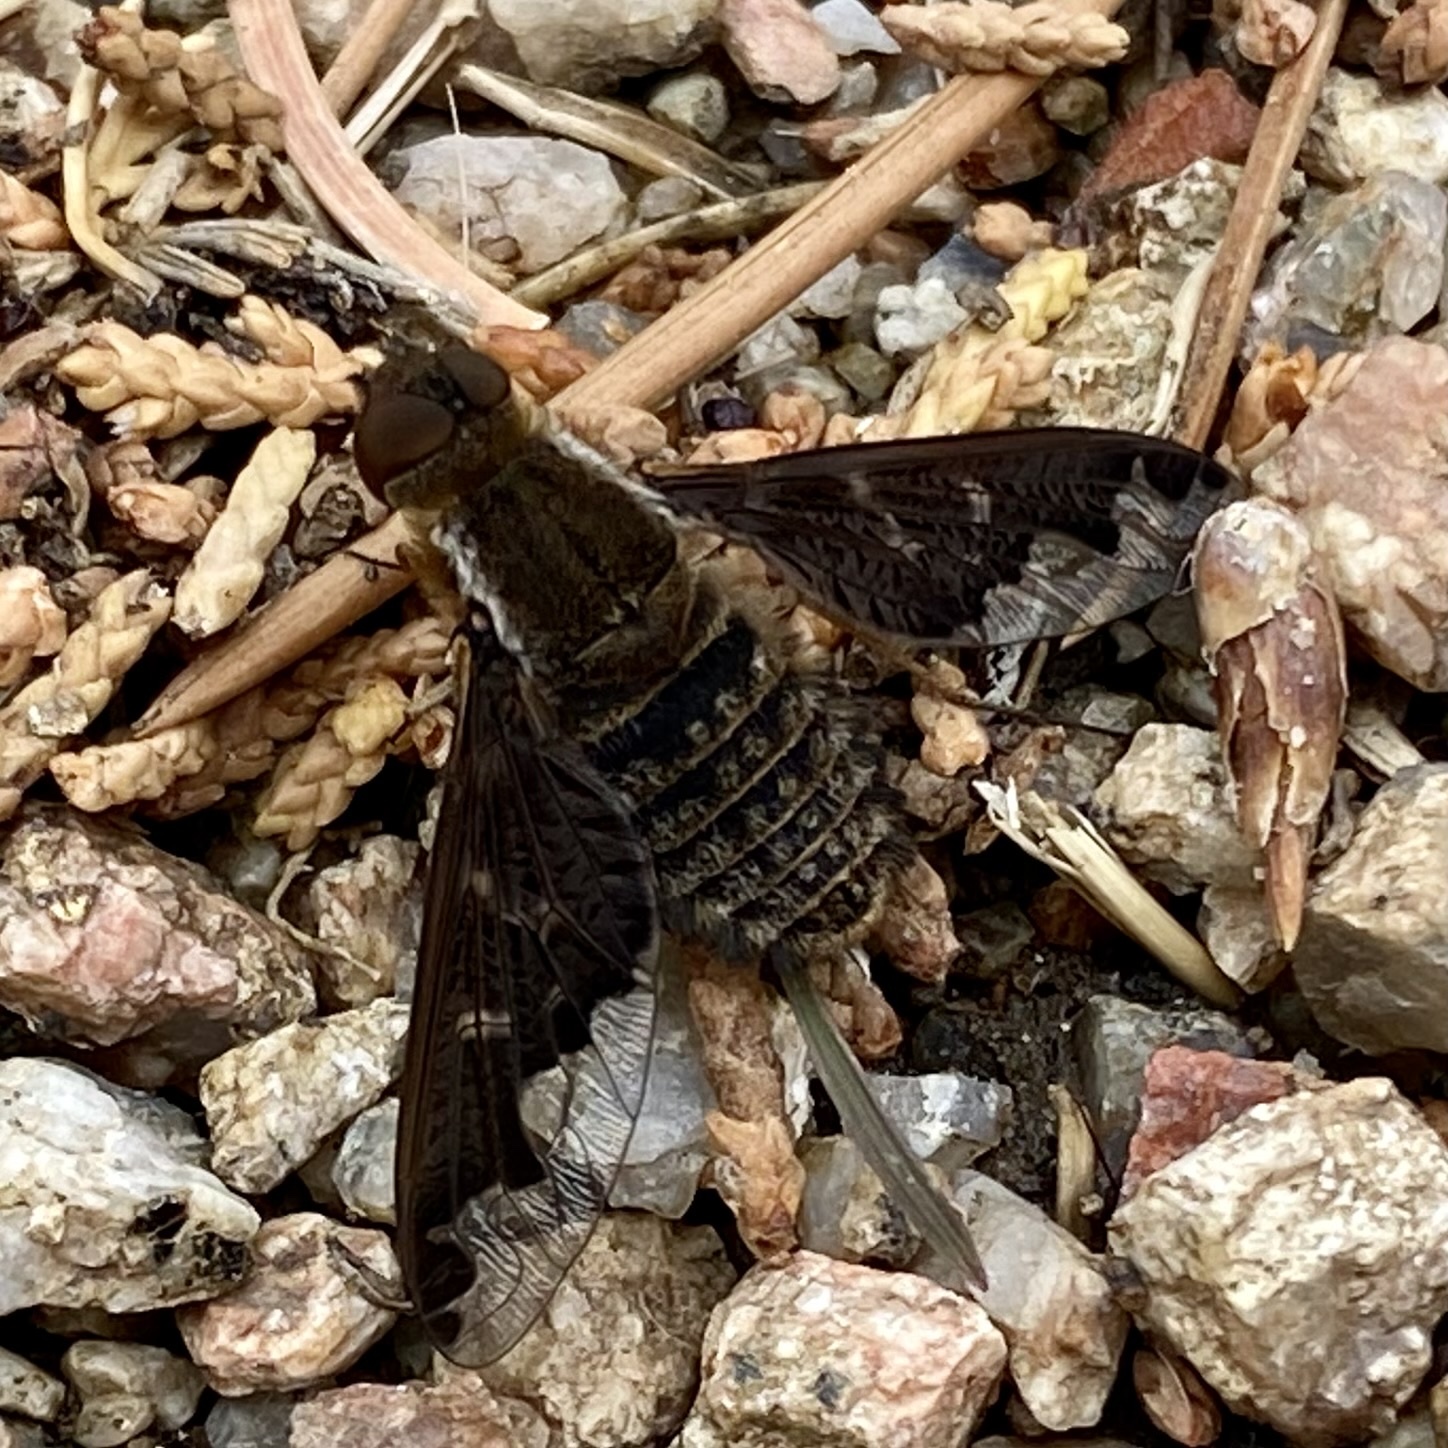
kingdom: Animalia
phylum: Arthropoda
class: Insecta
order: Diptera
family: Bombyliidae
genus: Hemipenthes
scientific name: Hemipenthes sinuosus
